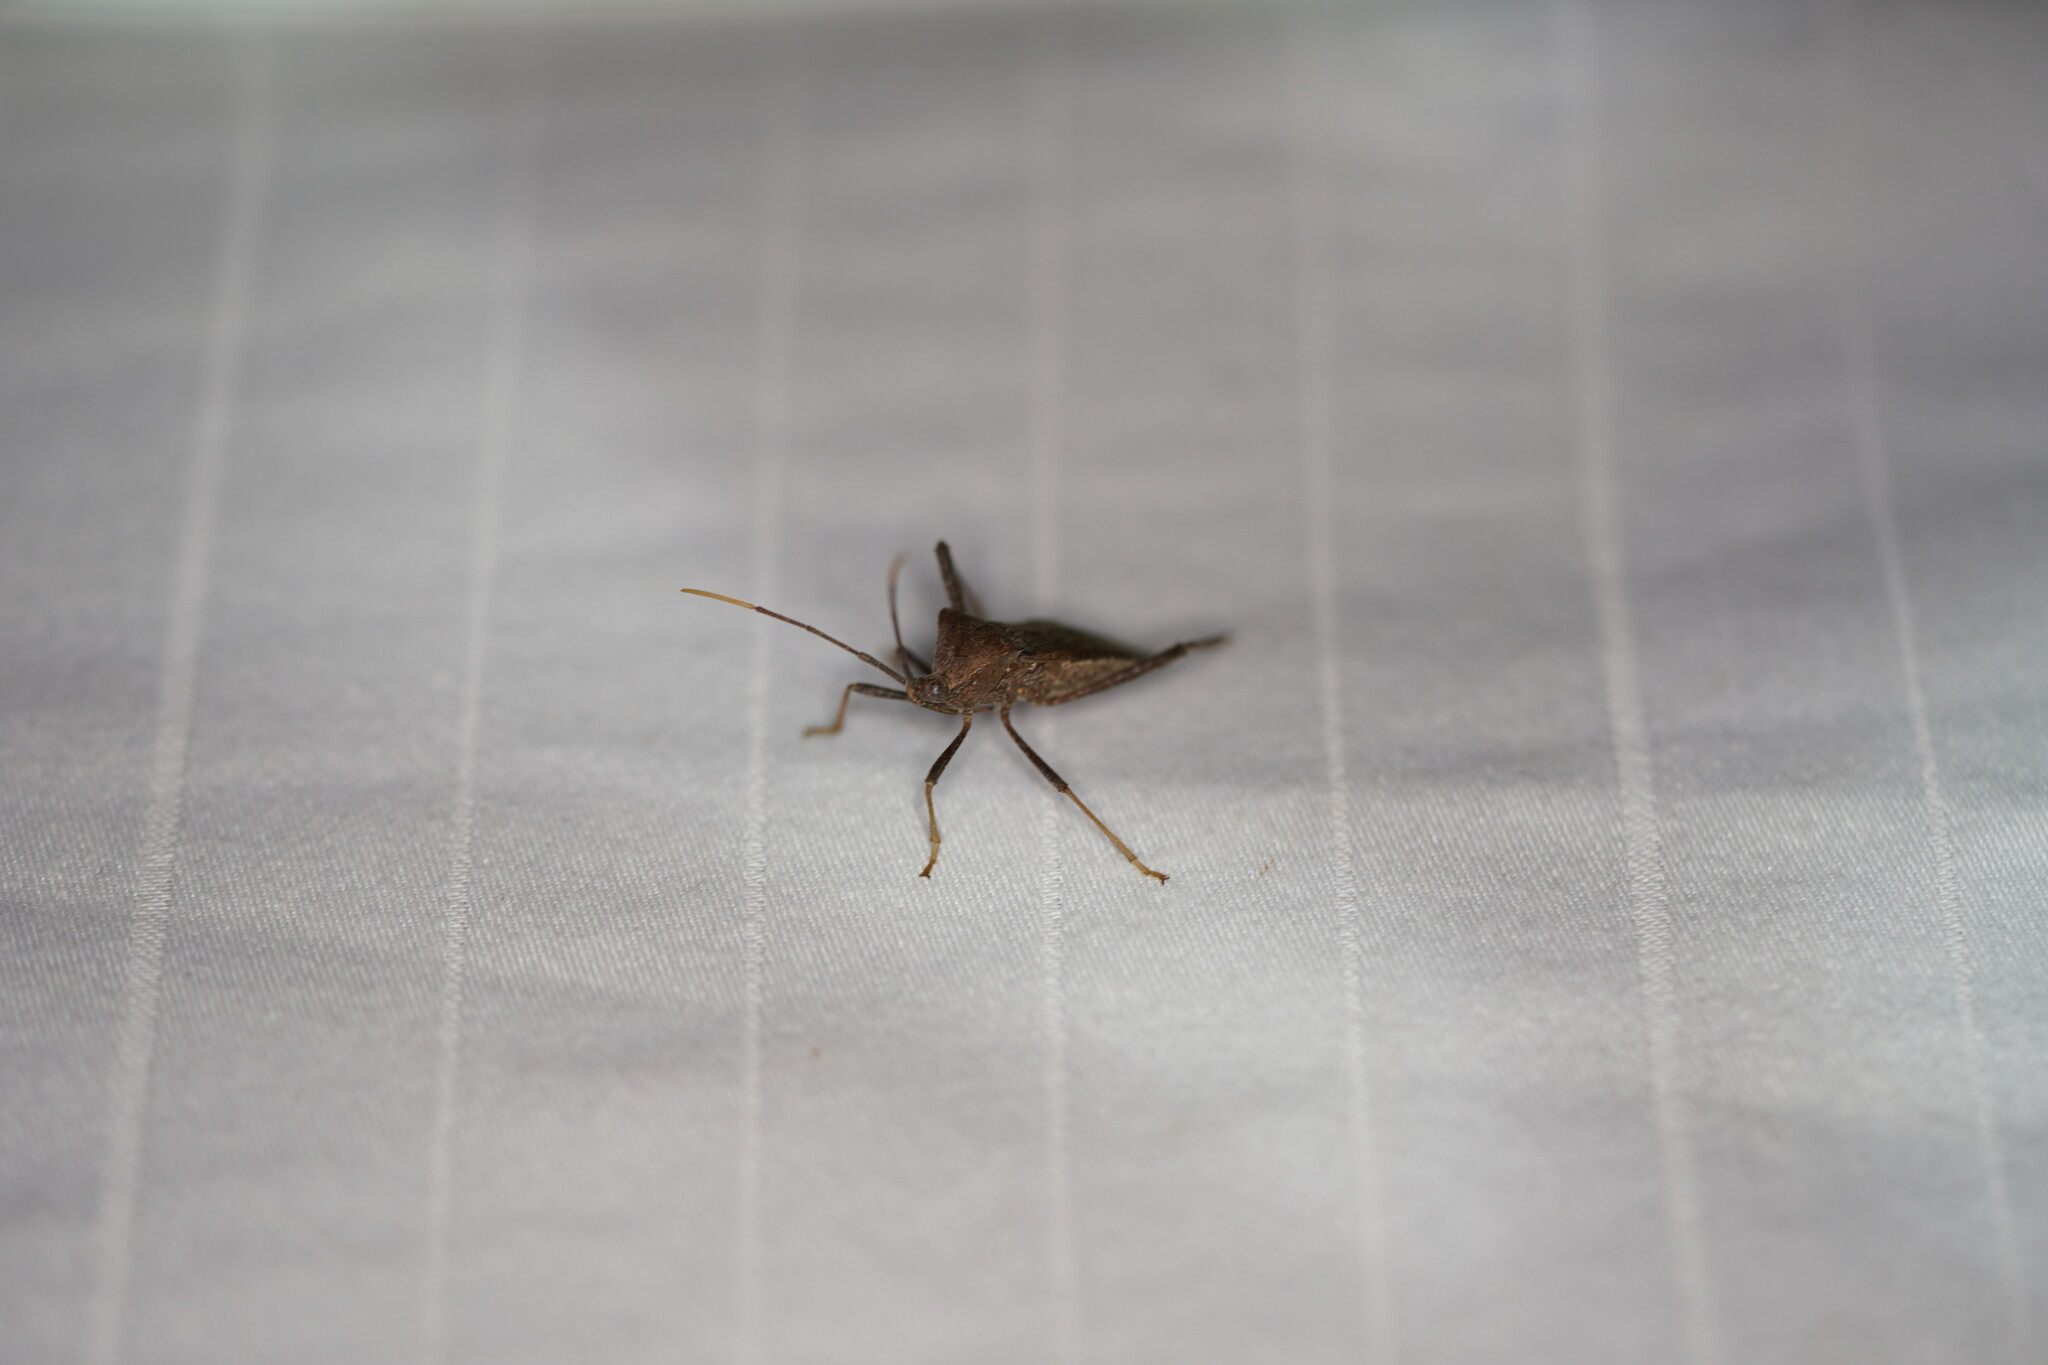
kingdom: Animalia
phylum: Arthropoda
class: Insecta
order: Hemiptera
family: Coreidae
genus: Acanthocephala
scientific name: Acanthocephala terminalis
